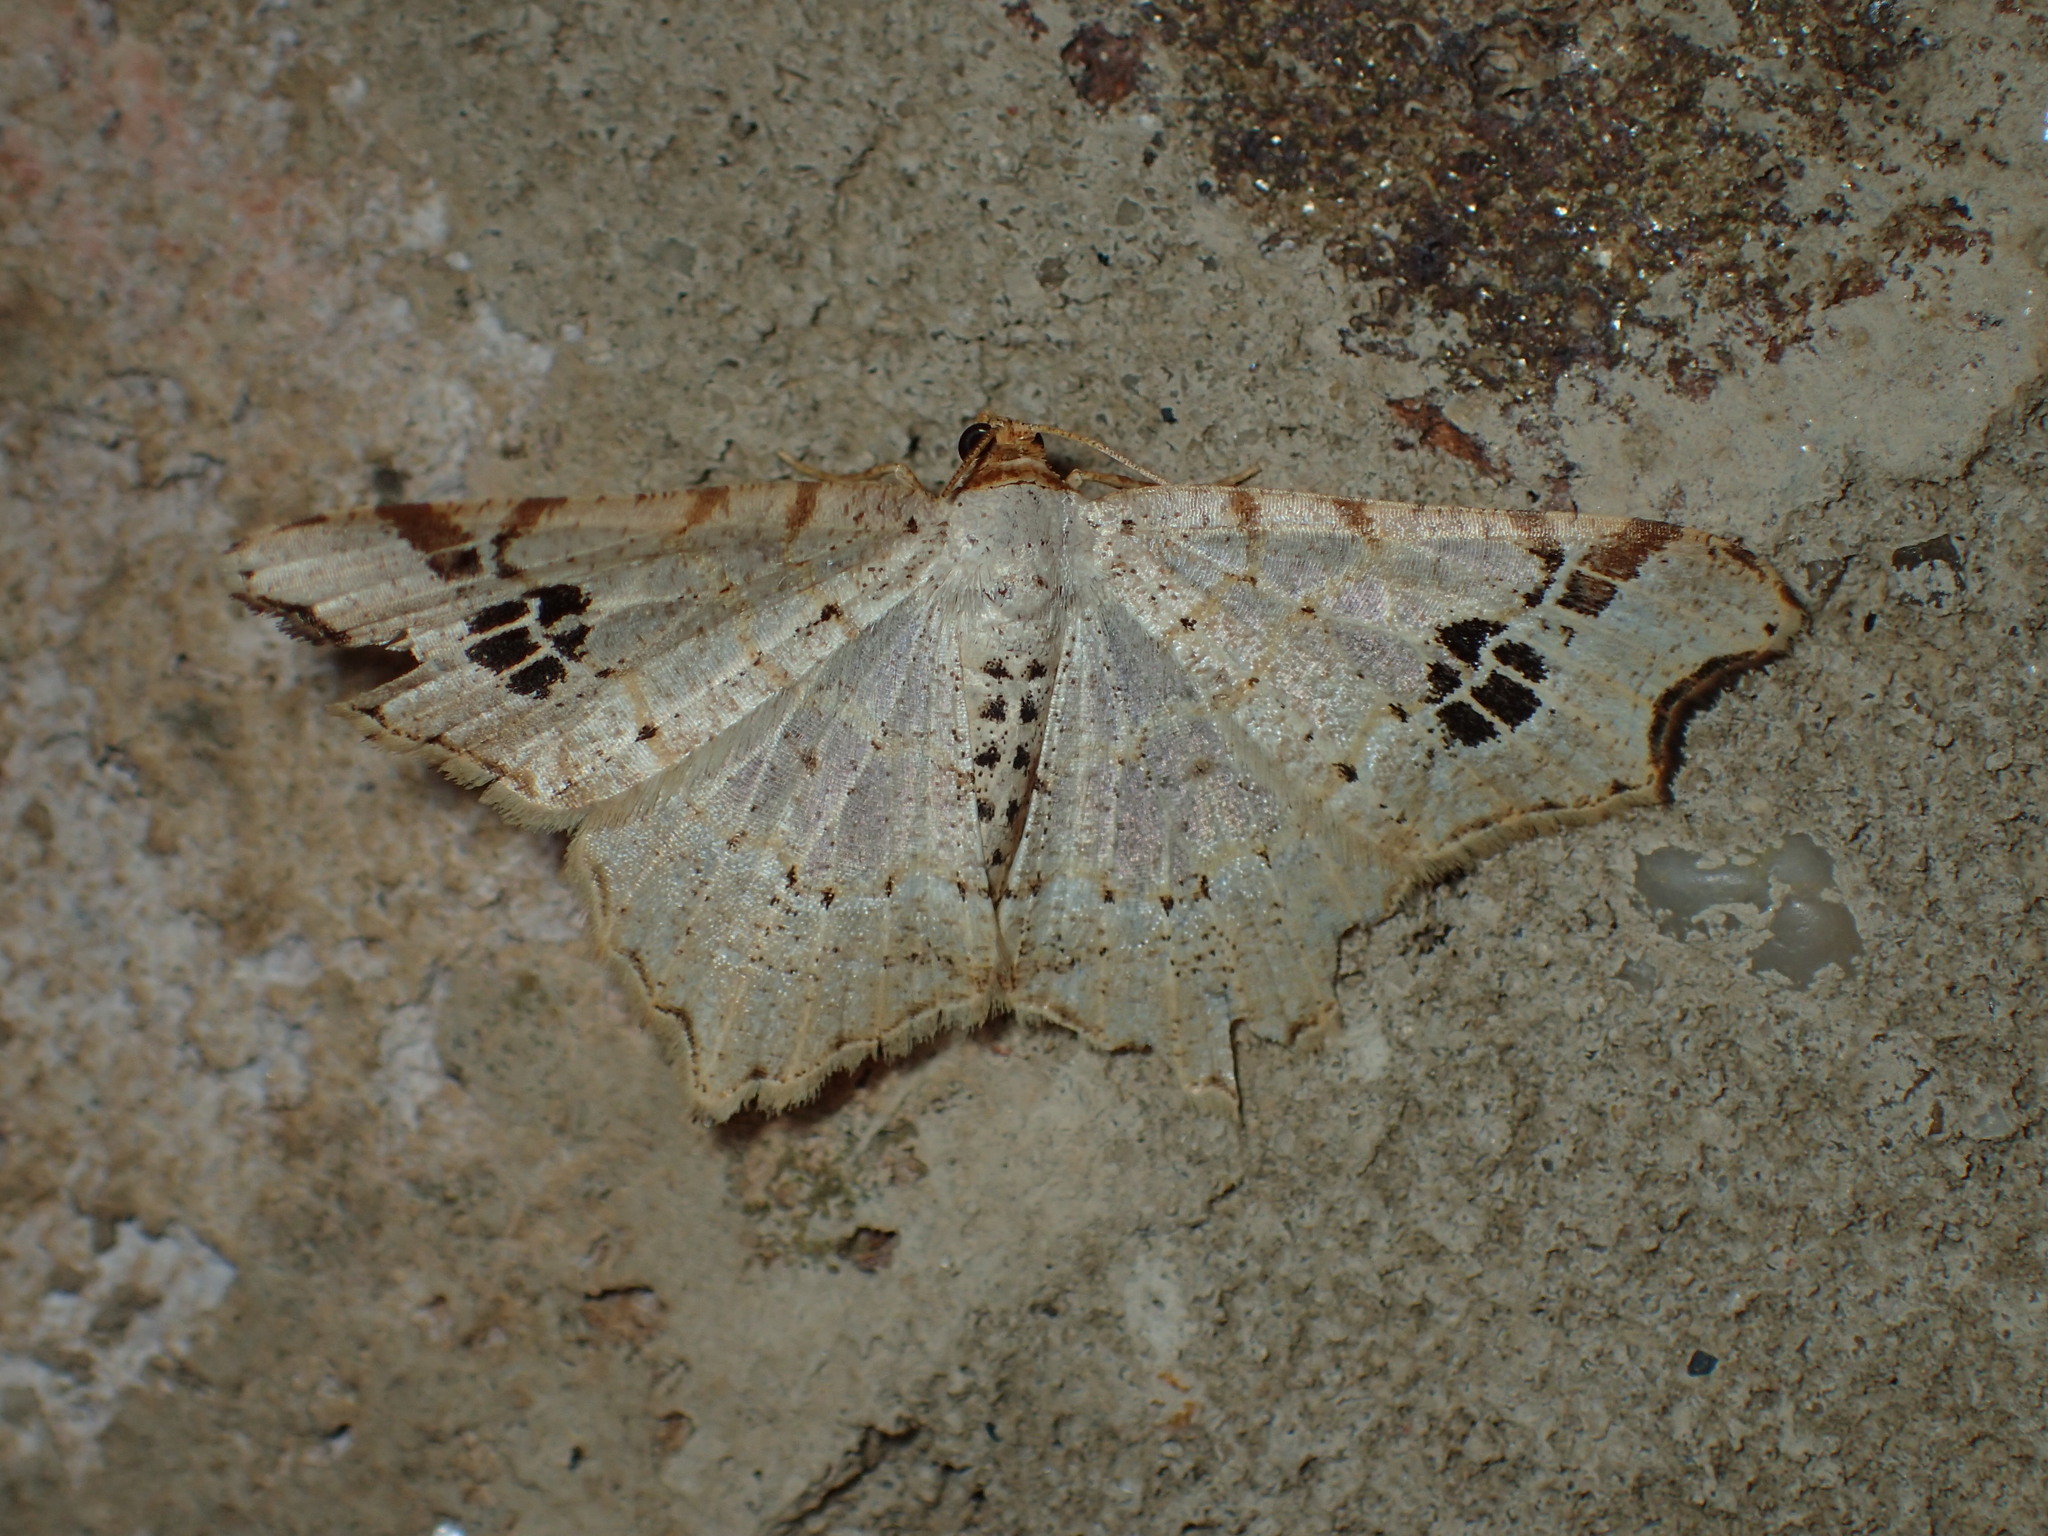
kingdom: Animalia
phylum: Arthropoda
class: Insecta
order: Lepidoptera
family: Geometridae
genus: Macaria
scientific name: Macaria aemulataria
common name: Common angle
